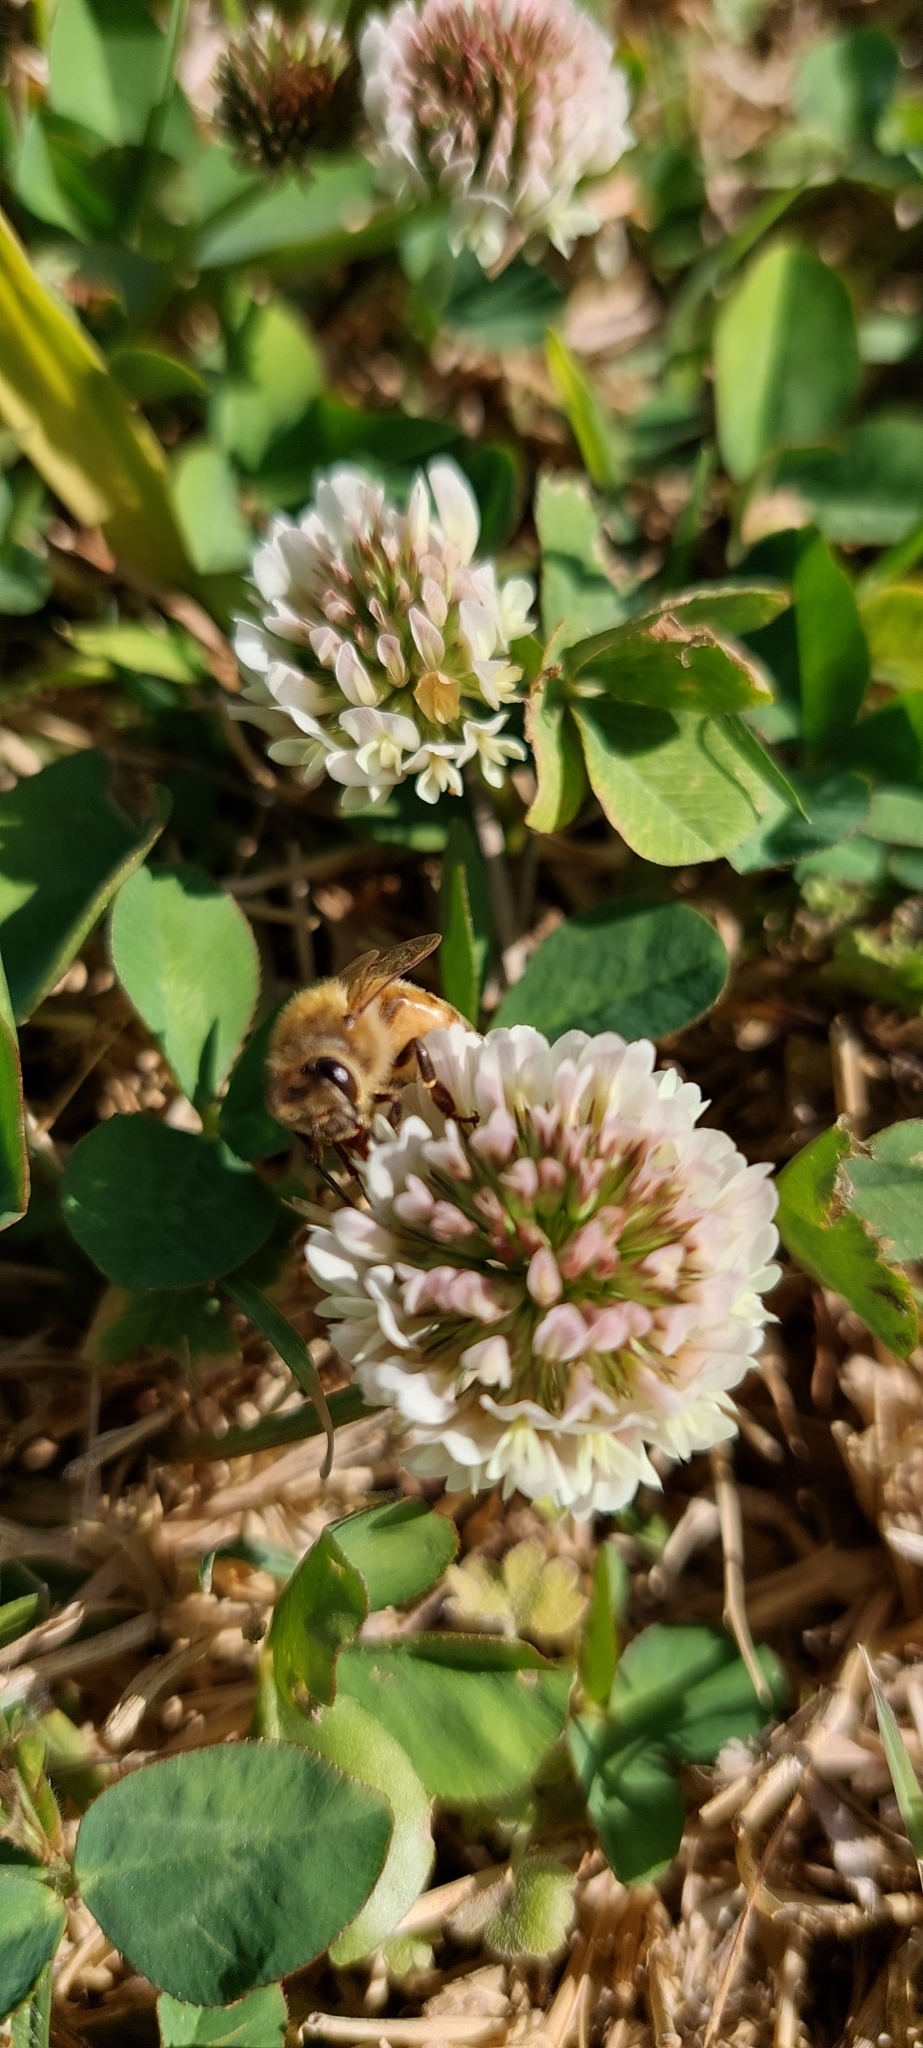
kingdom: Plantae
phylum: Tracheophyta
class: Magnoliopsida
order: Fabales
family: Fabaceae
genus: Trifolium
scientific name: Trifolium repens
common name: White clover
